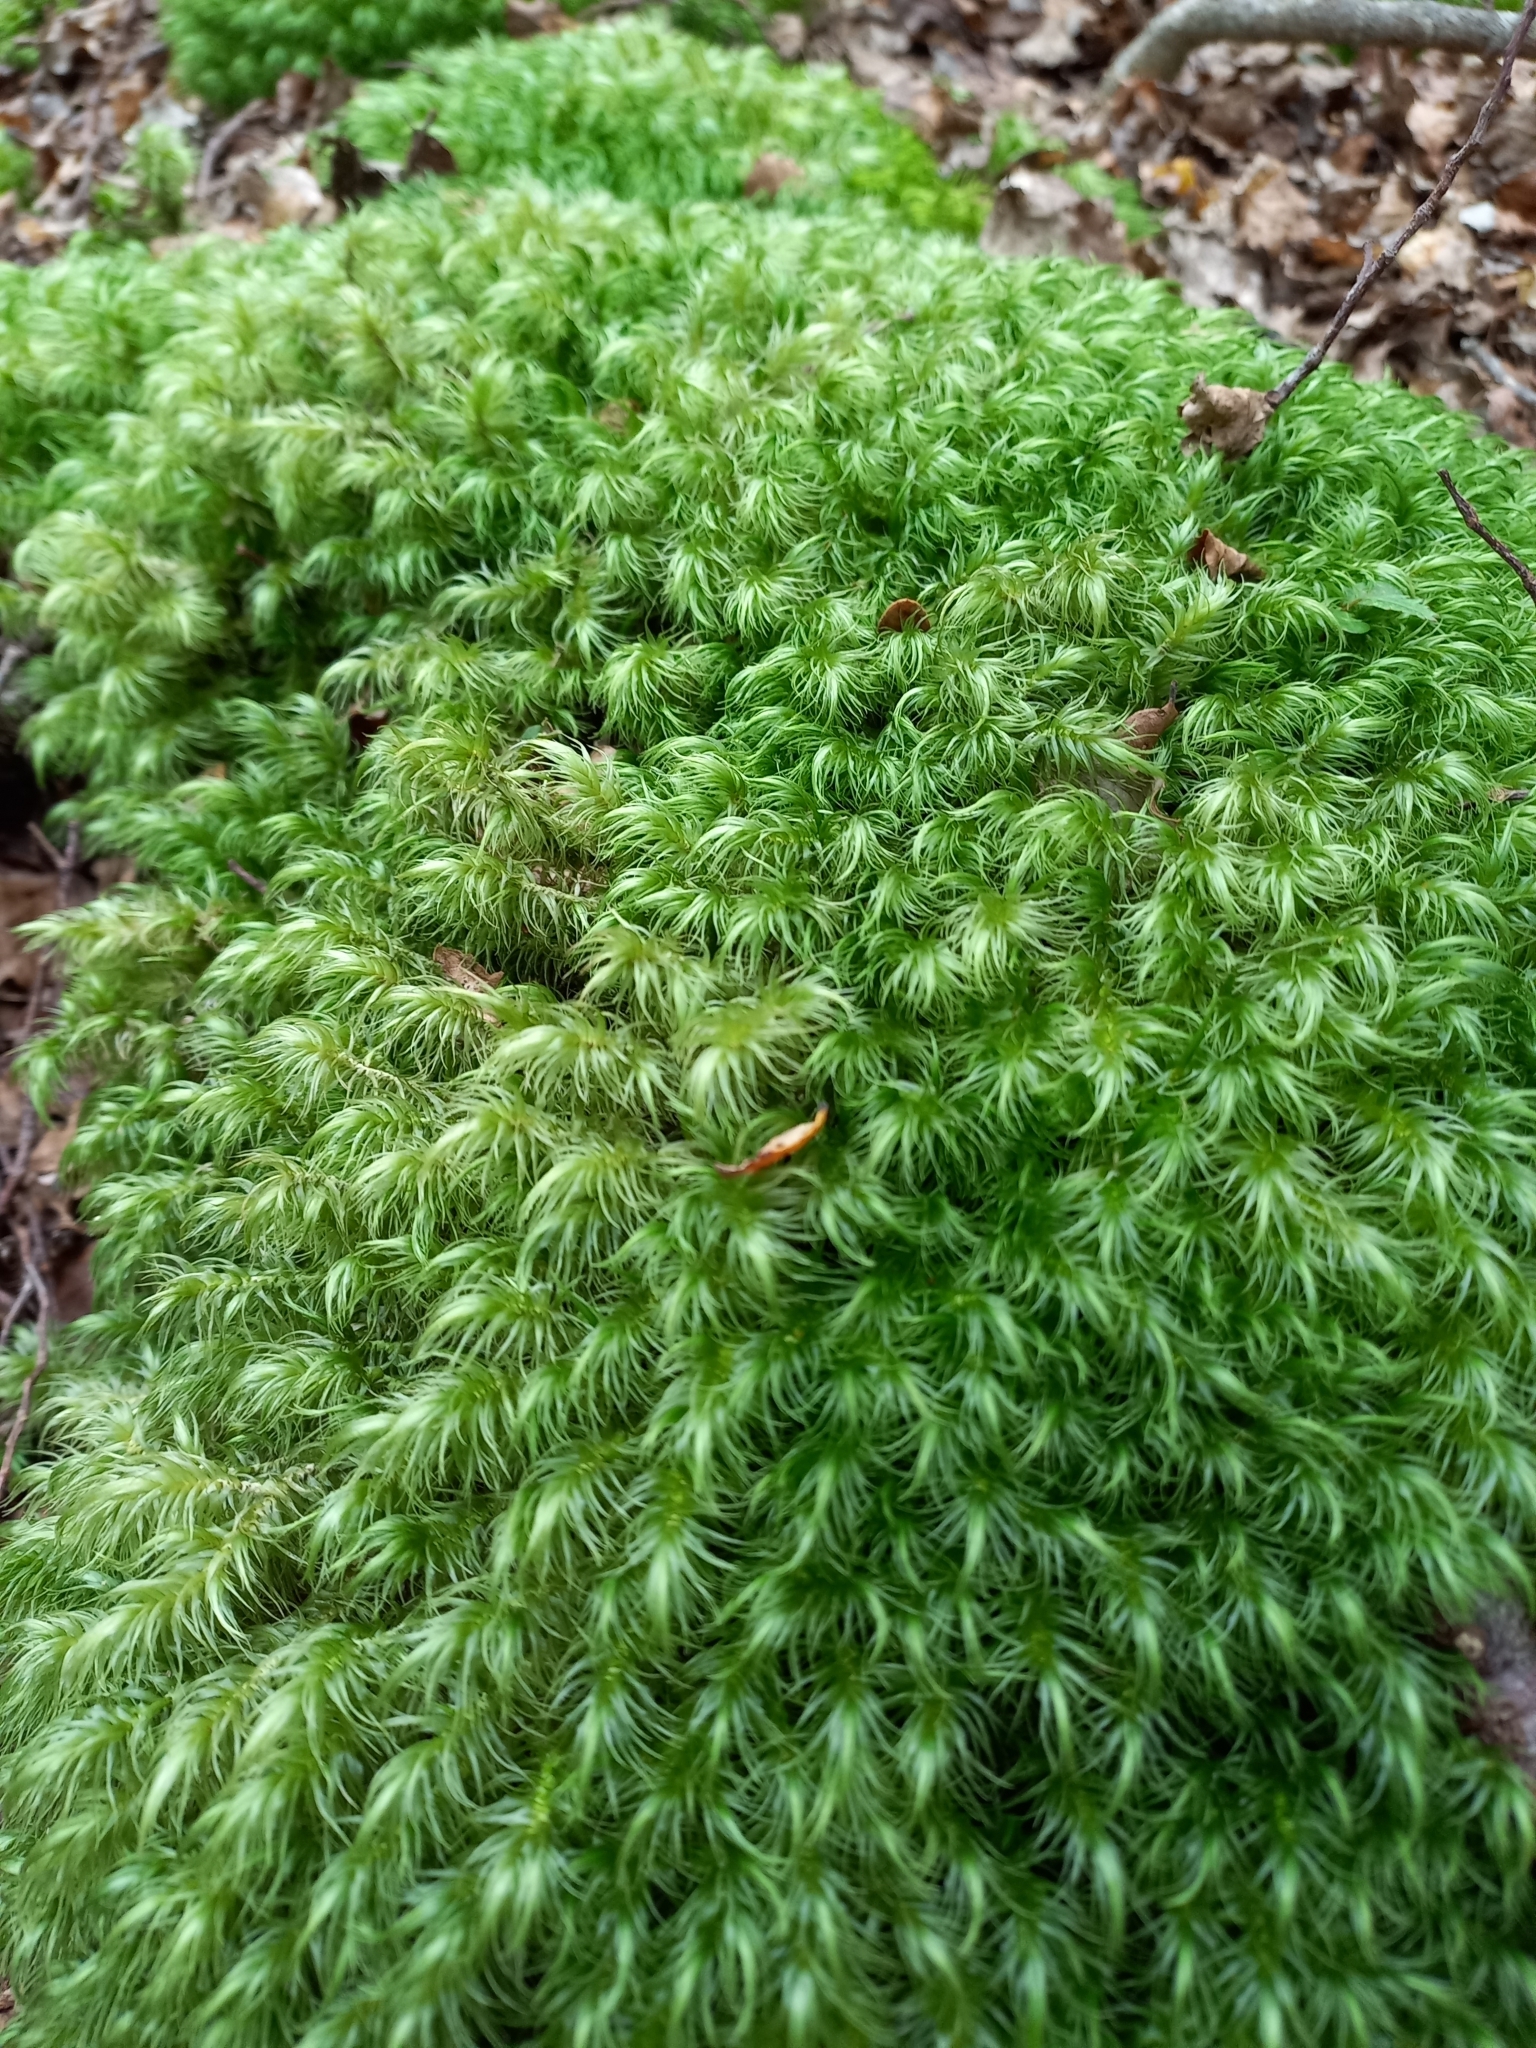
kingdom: Plantae
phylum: Bryophyta
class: Bryopsida
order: Dicranales
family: Dicranaceae
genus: Dicranoloma
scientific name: Dicranoloma billardieri
